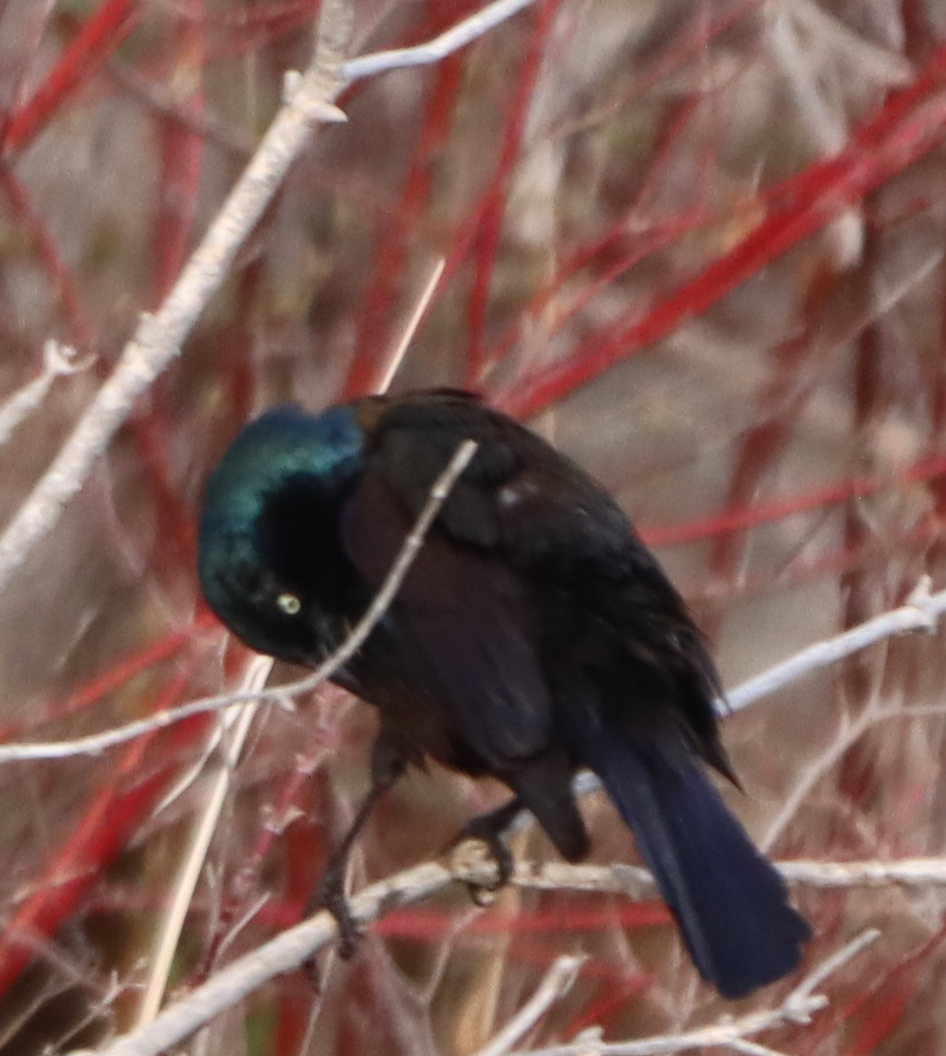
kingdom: Animalia
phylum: Chordata
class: Aves
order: Passeriformes
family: Icteridae
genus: Quiscalus
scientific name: Quiscalus quiscula
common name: Common grackle
